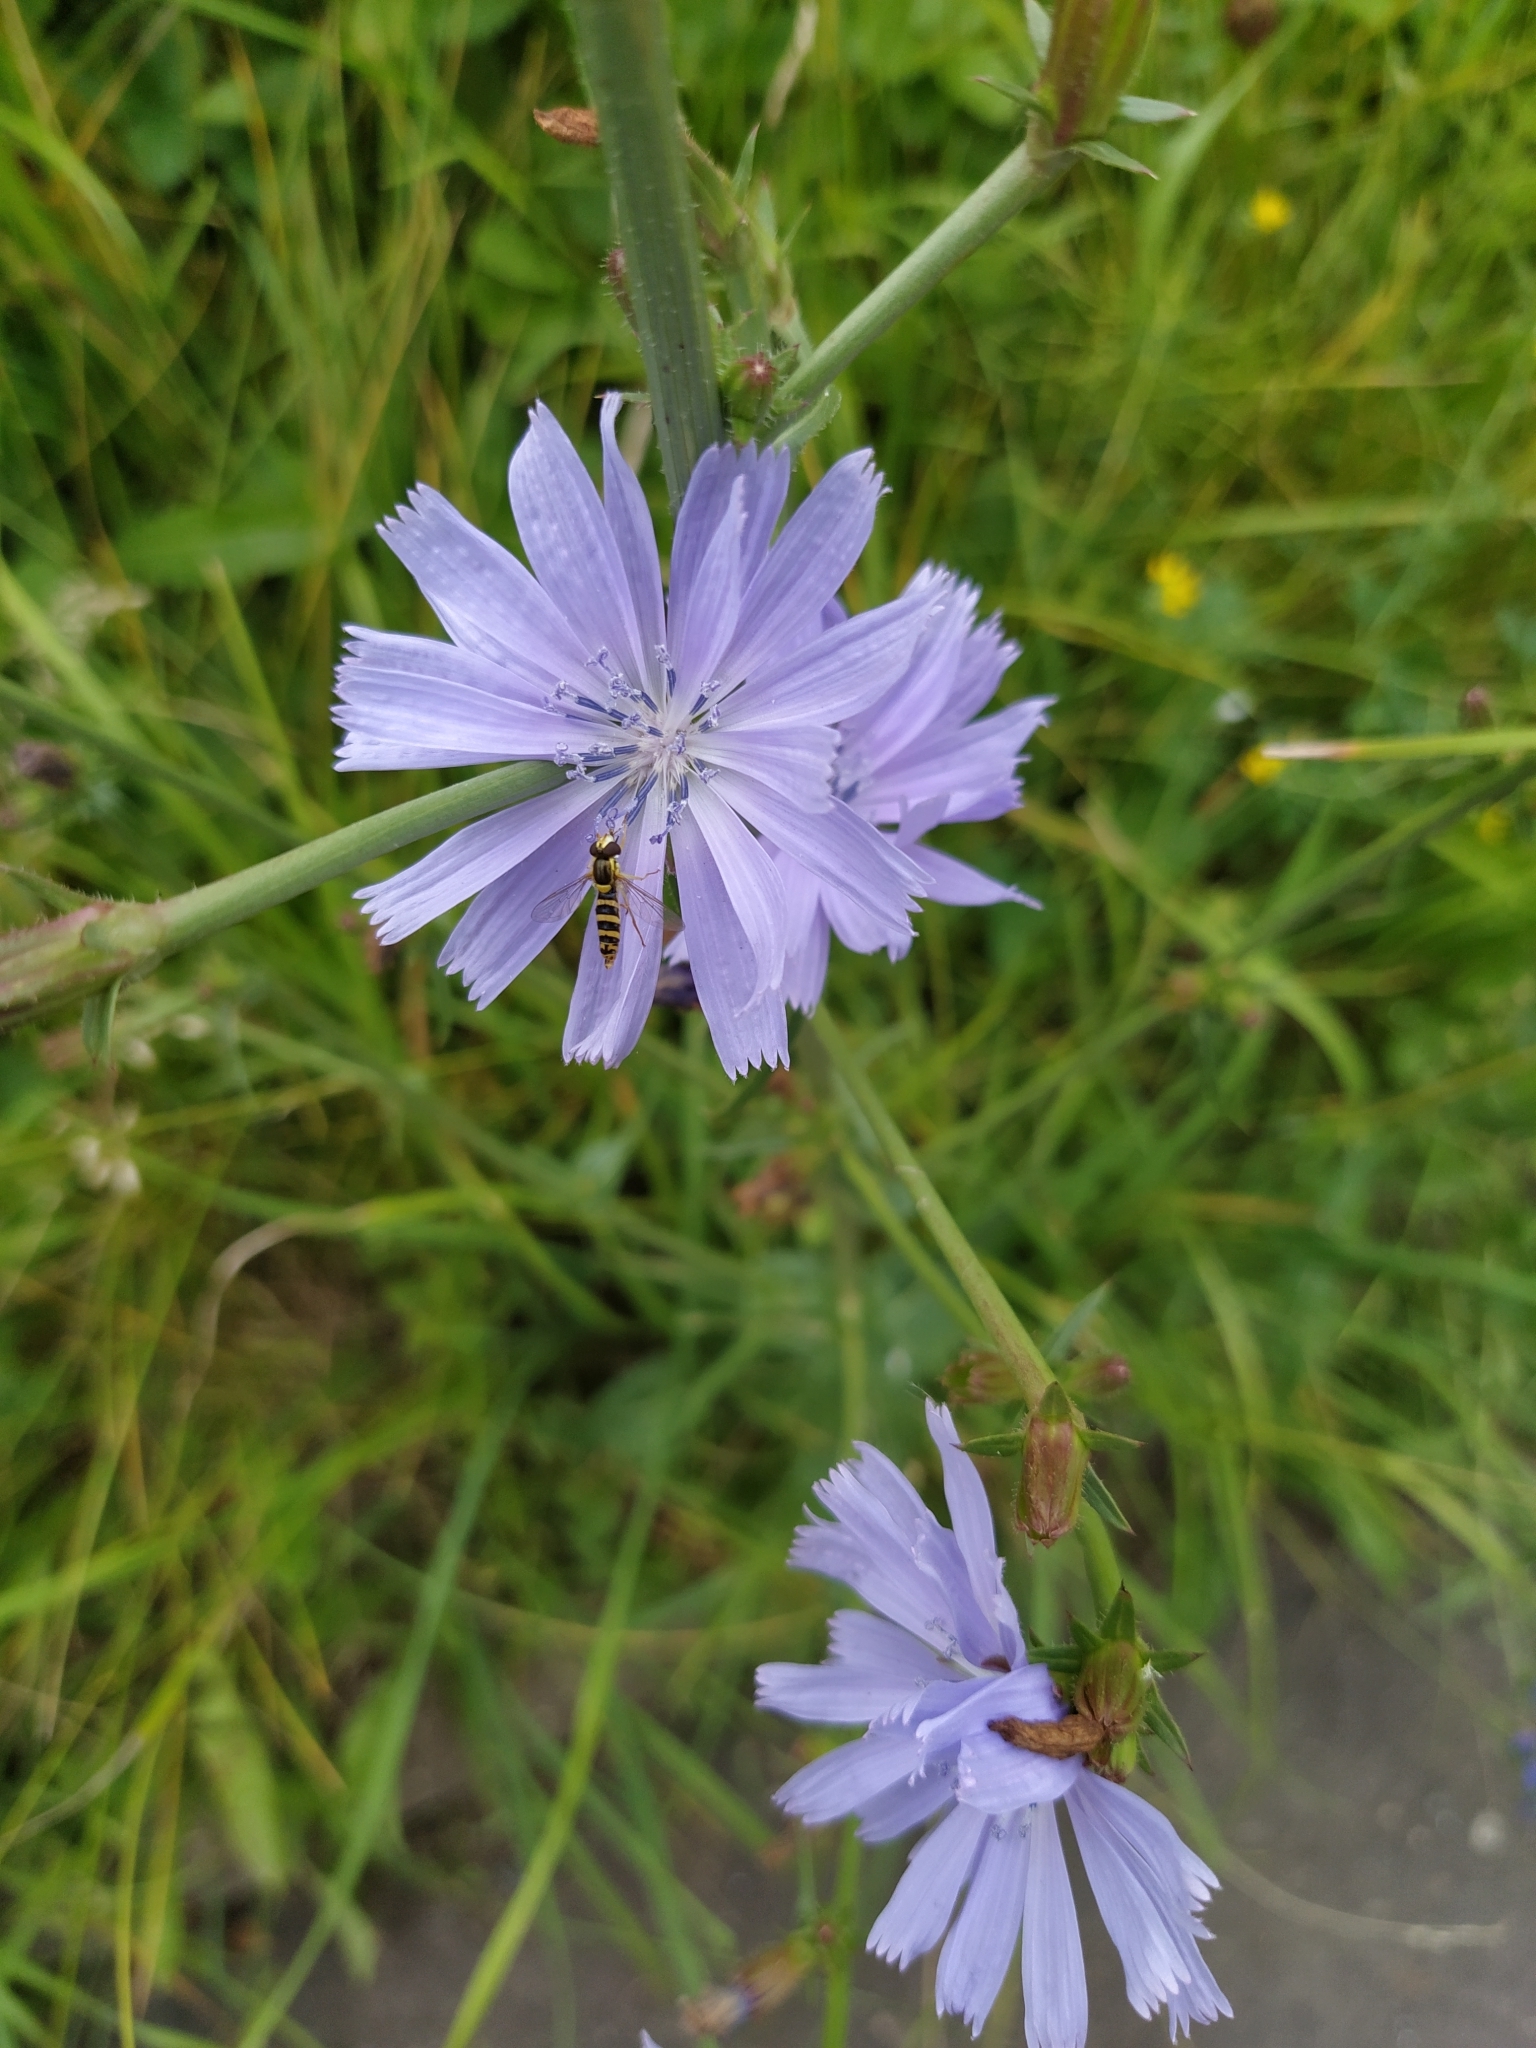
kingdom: Plantae
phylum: Tracheophyta
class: Magnoliopsida
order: Asterales
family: Asteraceae
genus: Cichorium
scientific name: Cichorium intybus
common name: Chicory
